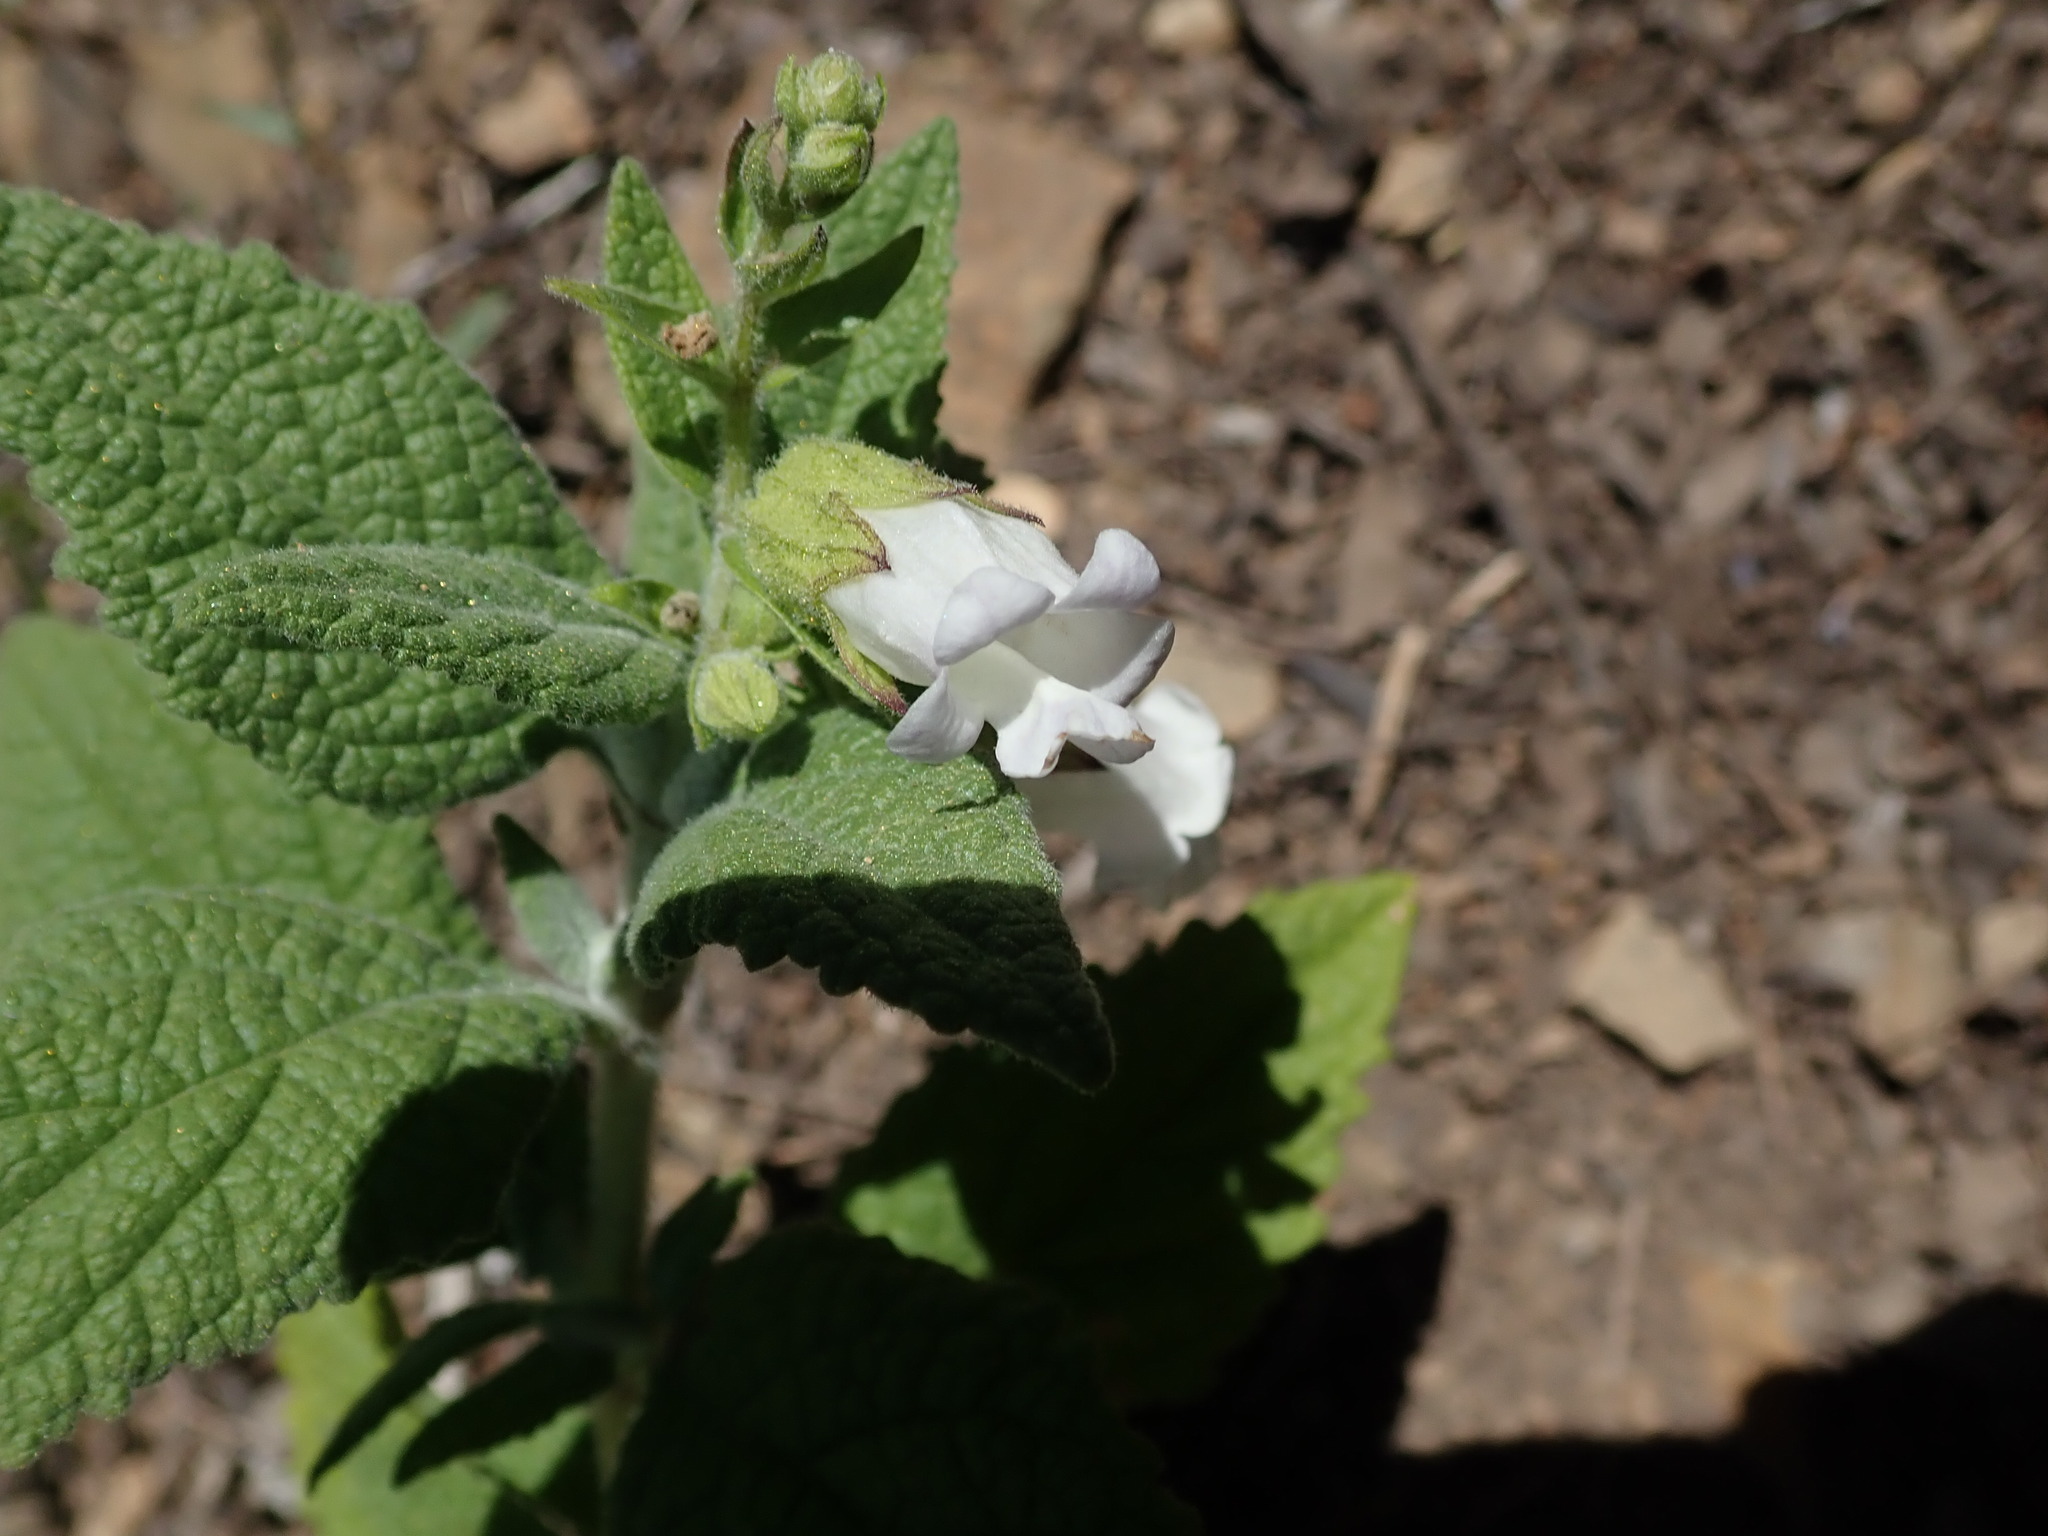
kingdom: Plantae
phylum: Tracheophyta
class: Magnoliopsida
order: Lamiales
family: Lamiaceae
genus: Lepechinia
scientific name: Lepechinia calycina
